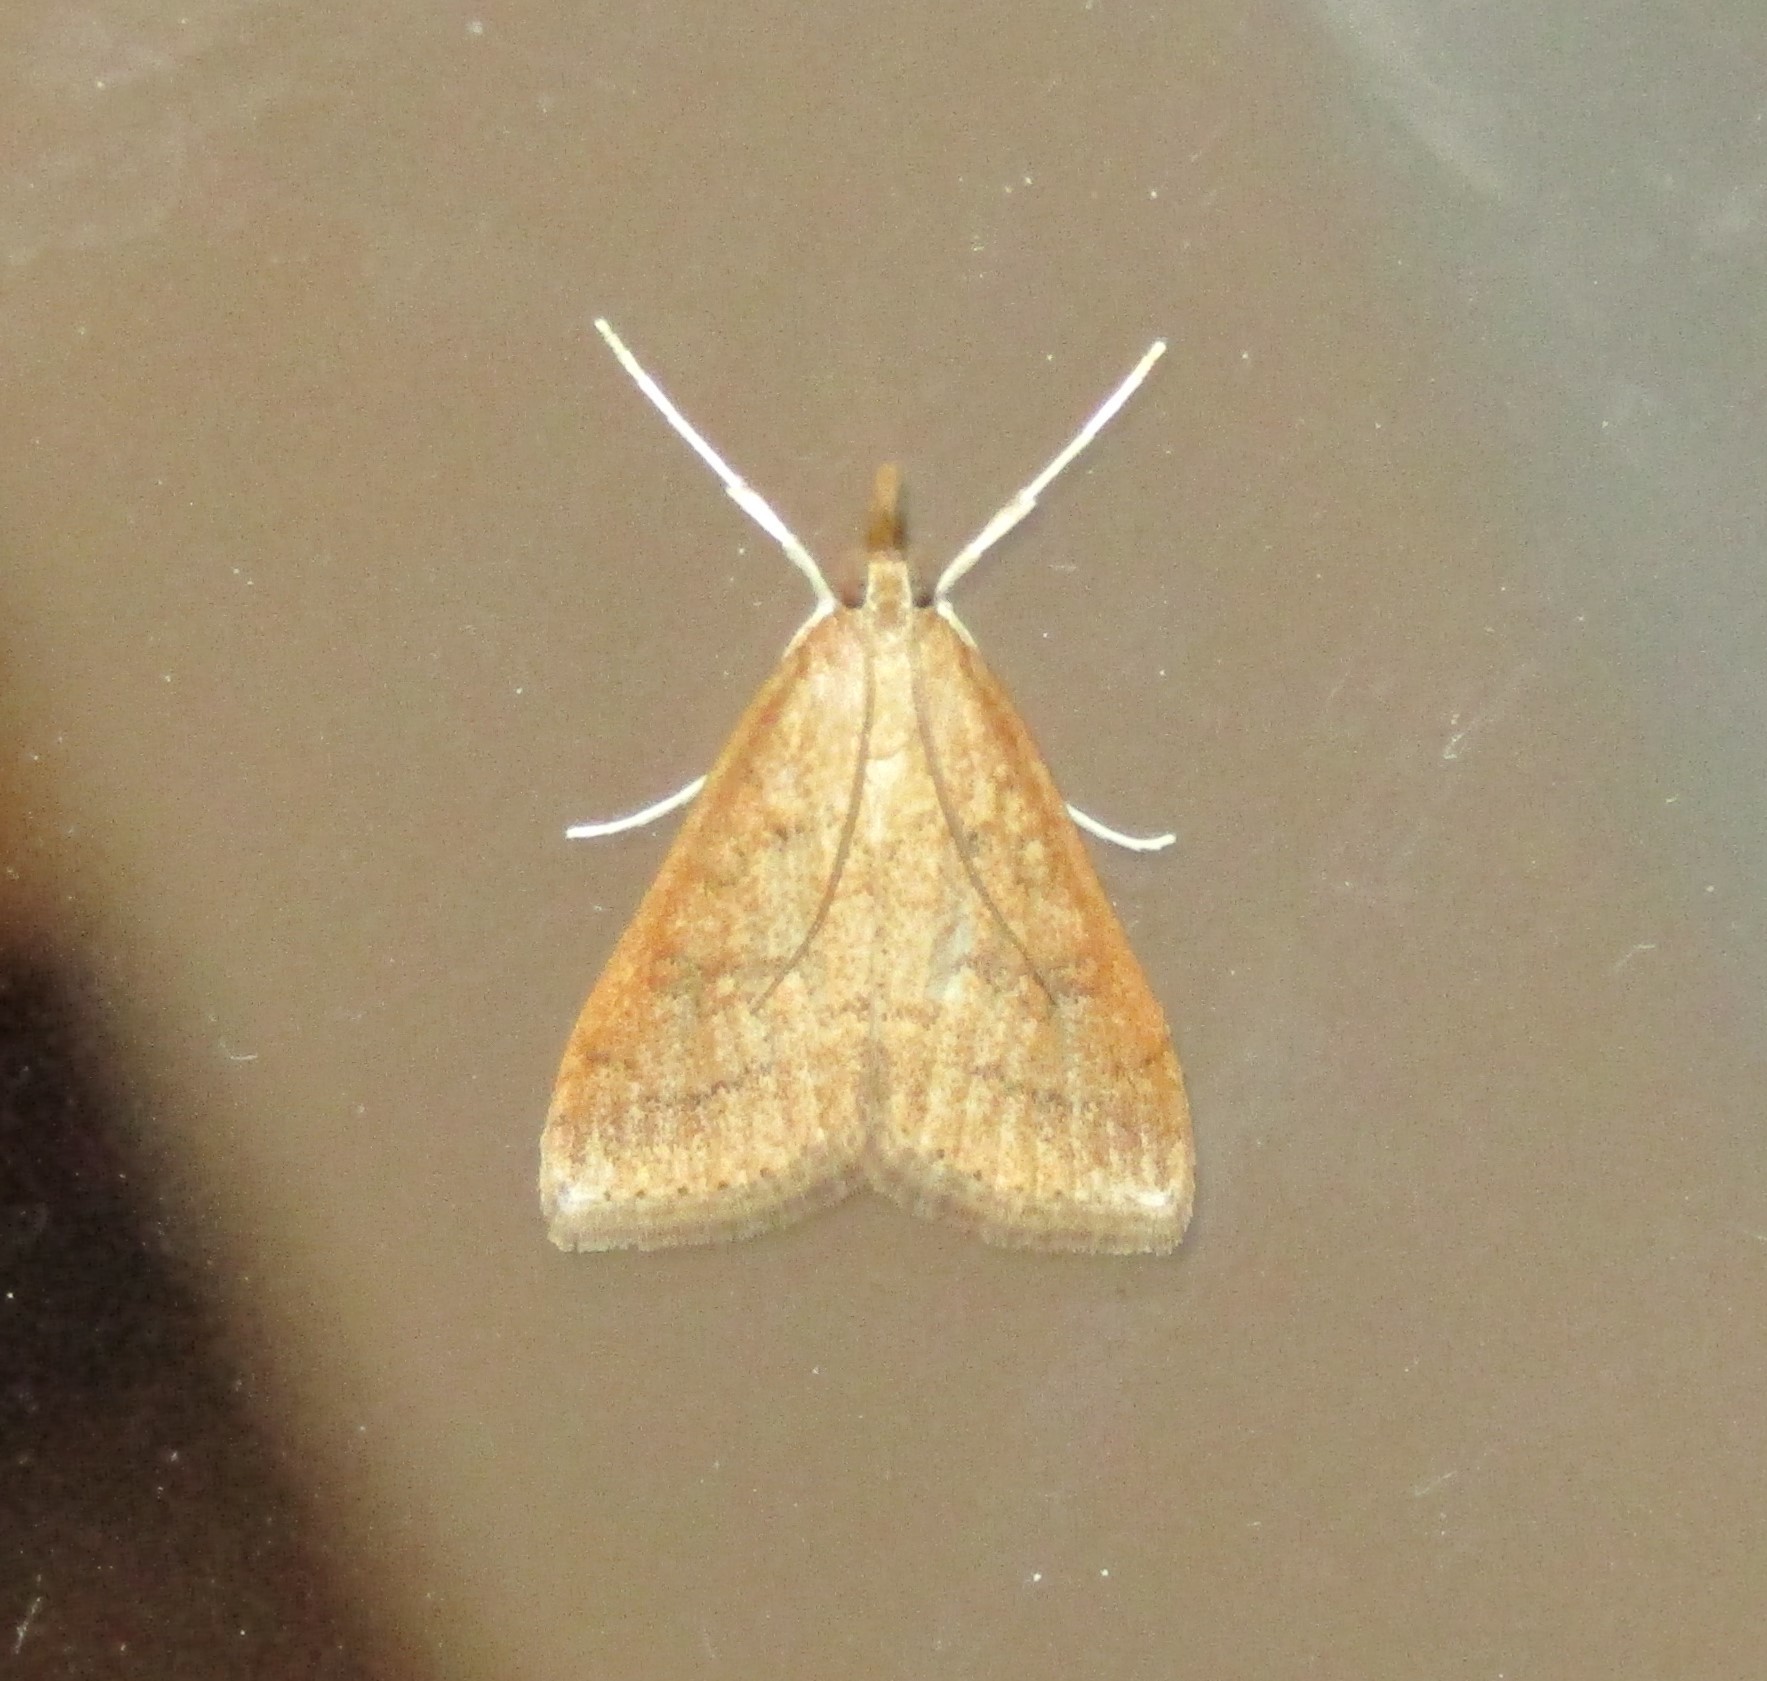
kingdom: Animalia
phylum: Arthropoda
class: Insecta
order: Lepidoptera
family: Crambidae
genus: Udea
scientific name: Udea rubigalis
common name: Celery leaftier moth
